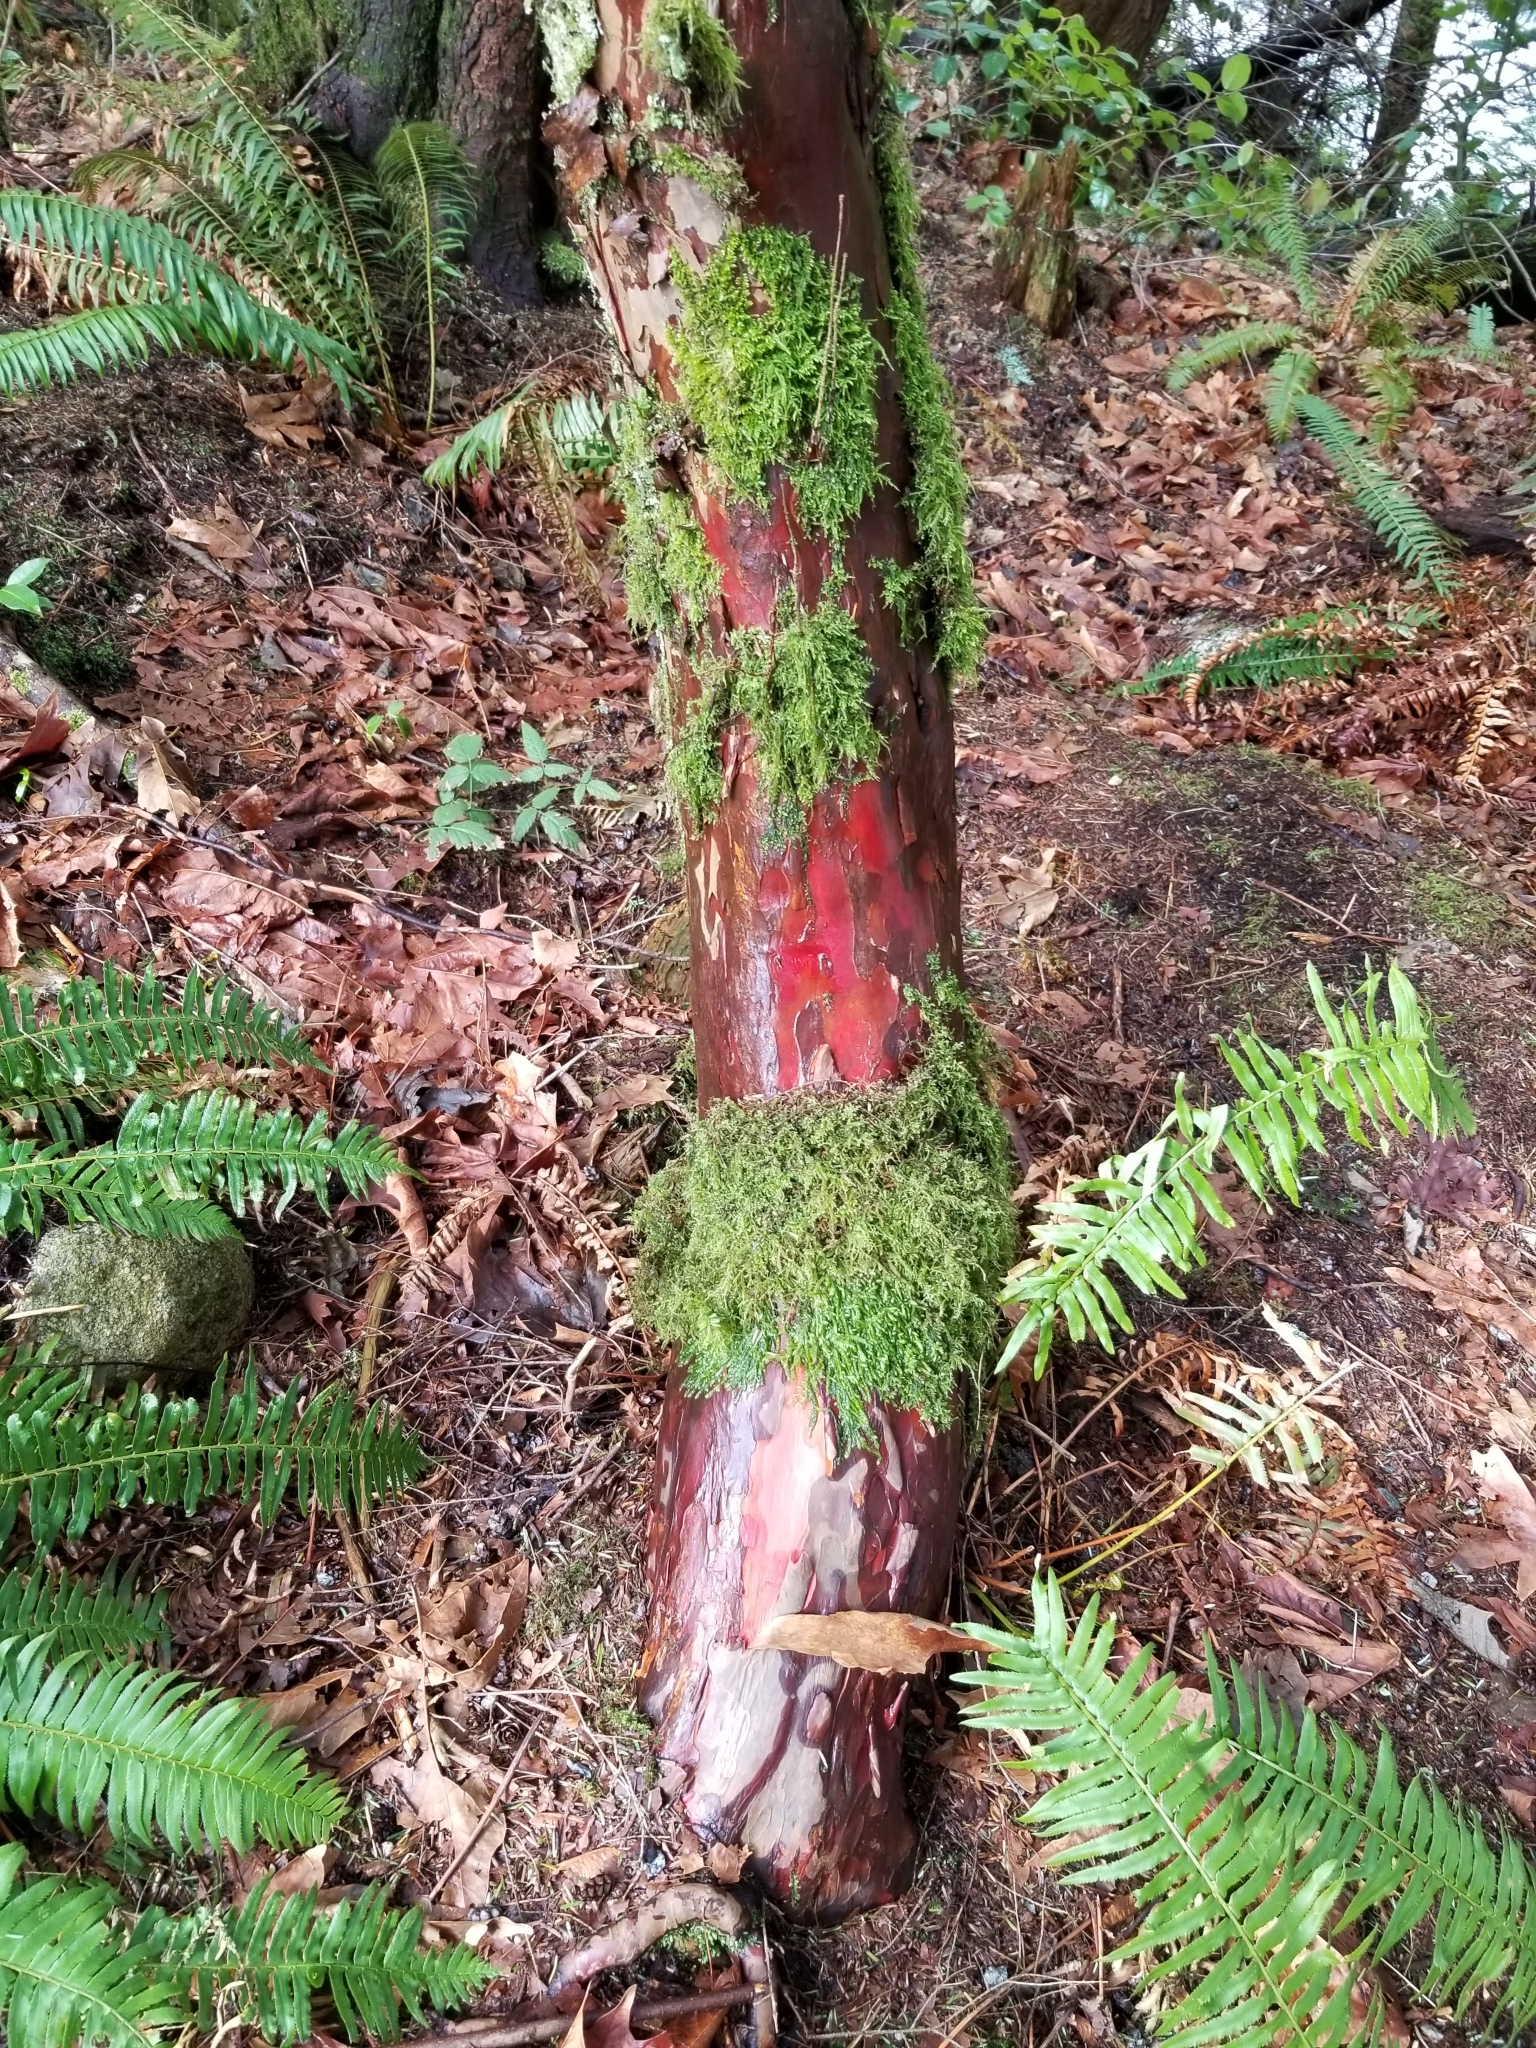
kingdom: Plantae
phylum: Tracheophyta
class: Pinopsida
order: Pinales
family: Taxaceae
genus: Taxus
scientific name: Taxus brevifolia
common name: Pacific yew
